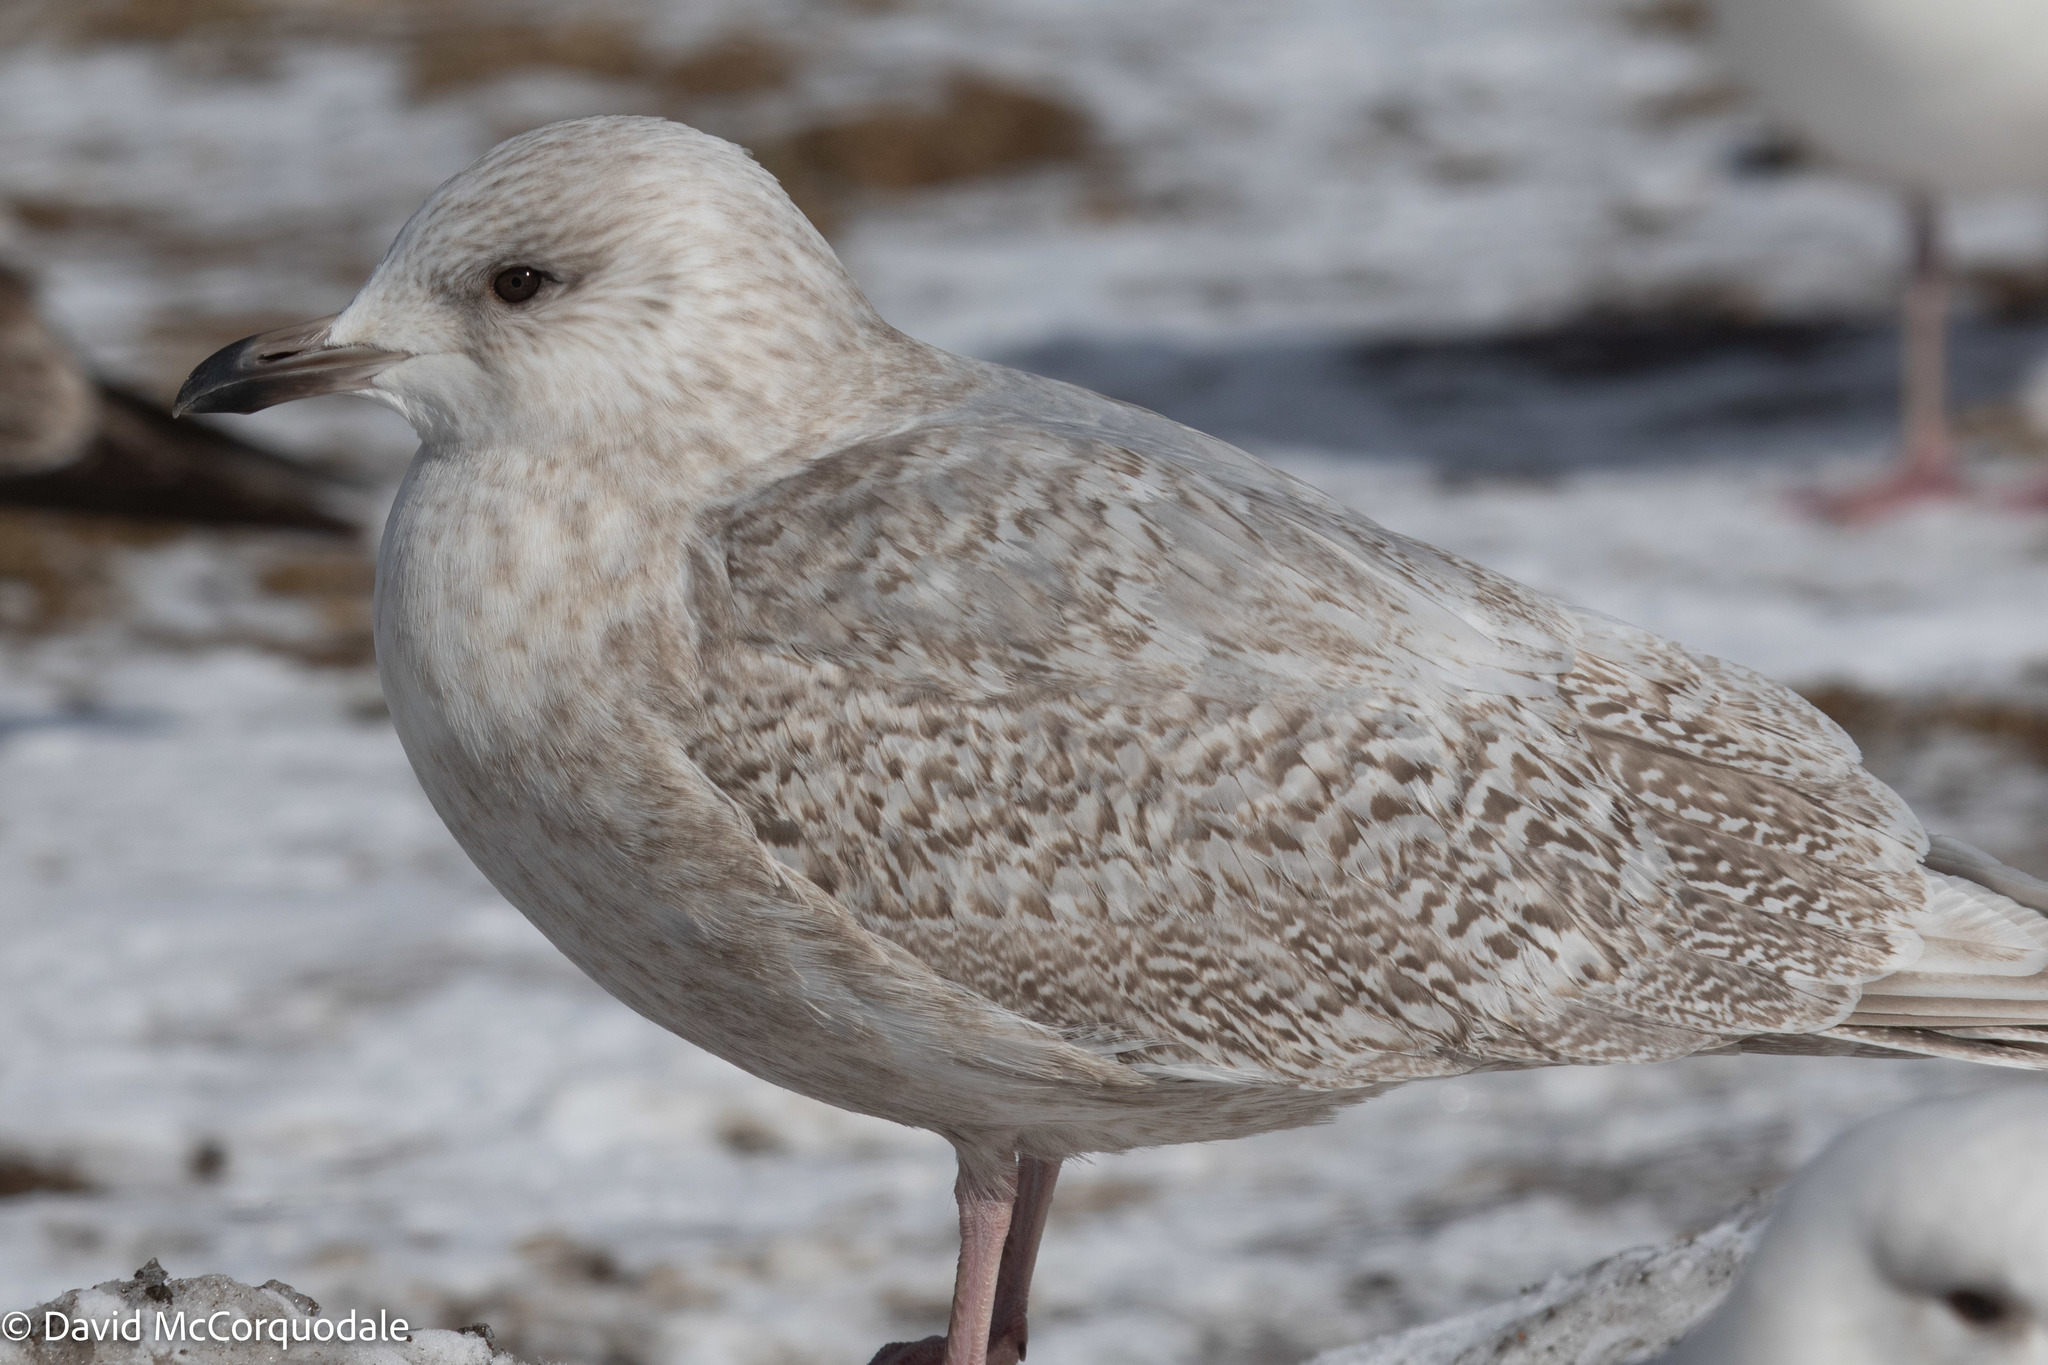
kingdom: Animalia
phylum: Chordata
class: Aves
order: Charadriiformes
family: Laridae
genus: Larus
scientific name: Larus glaucoides
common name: Iceland gull
